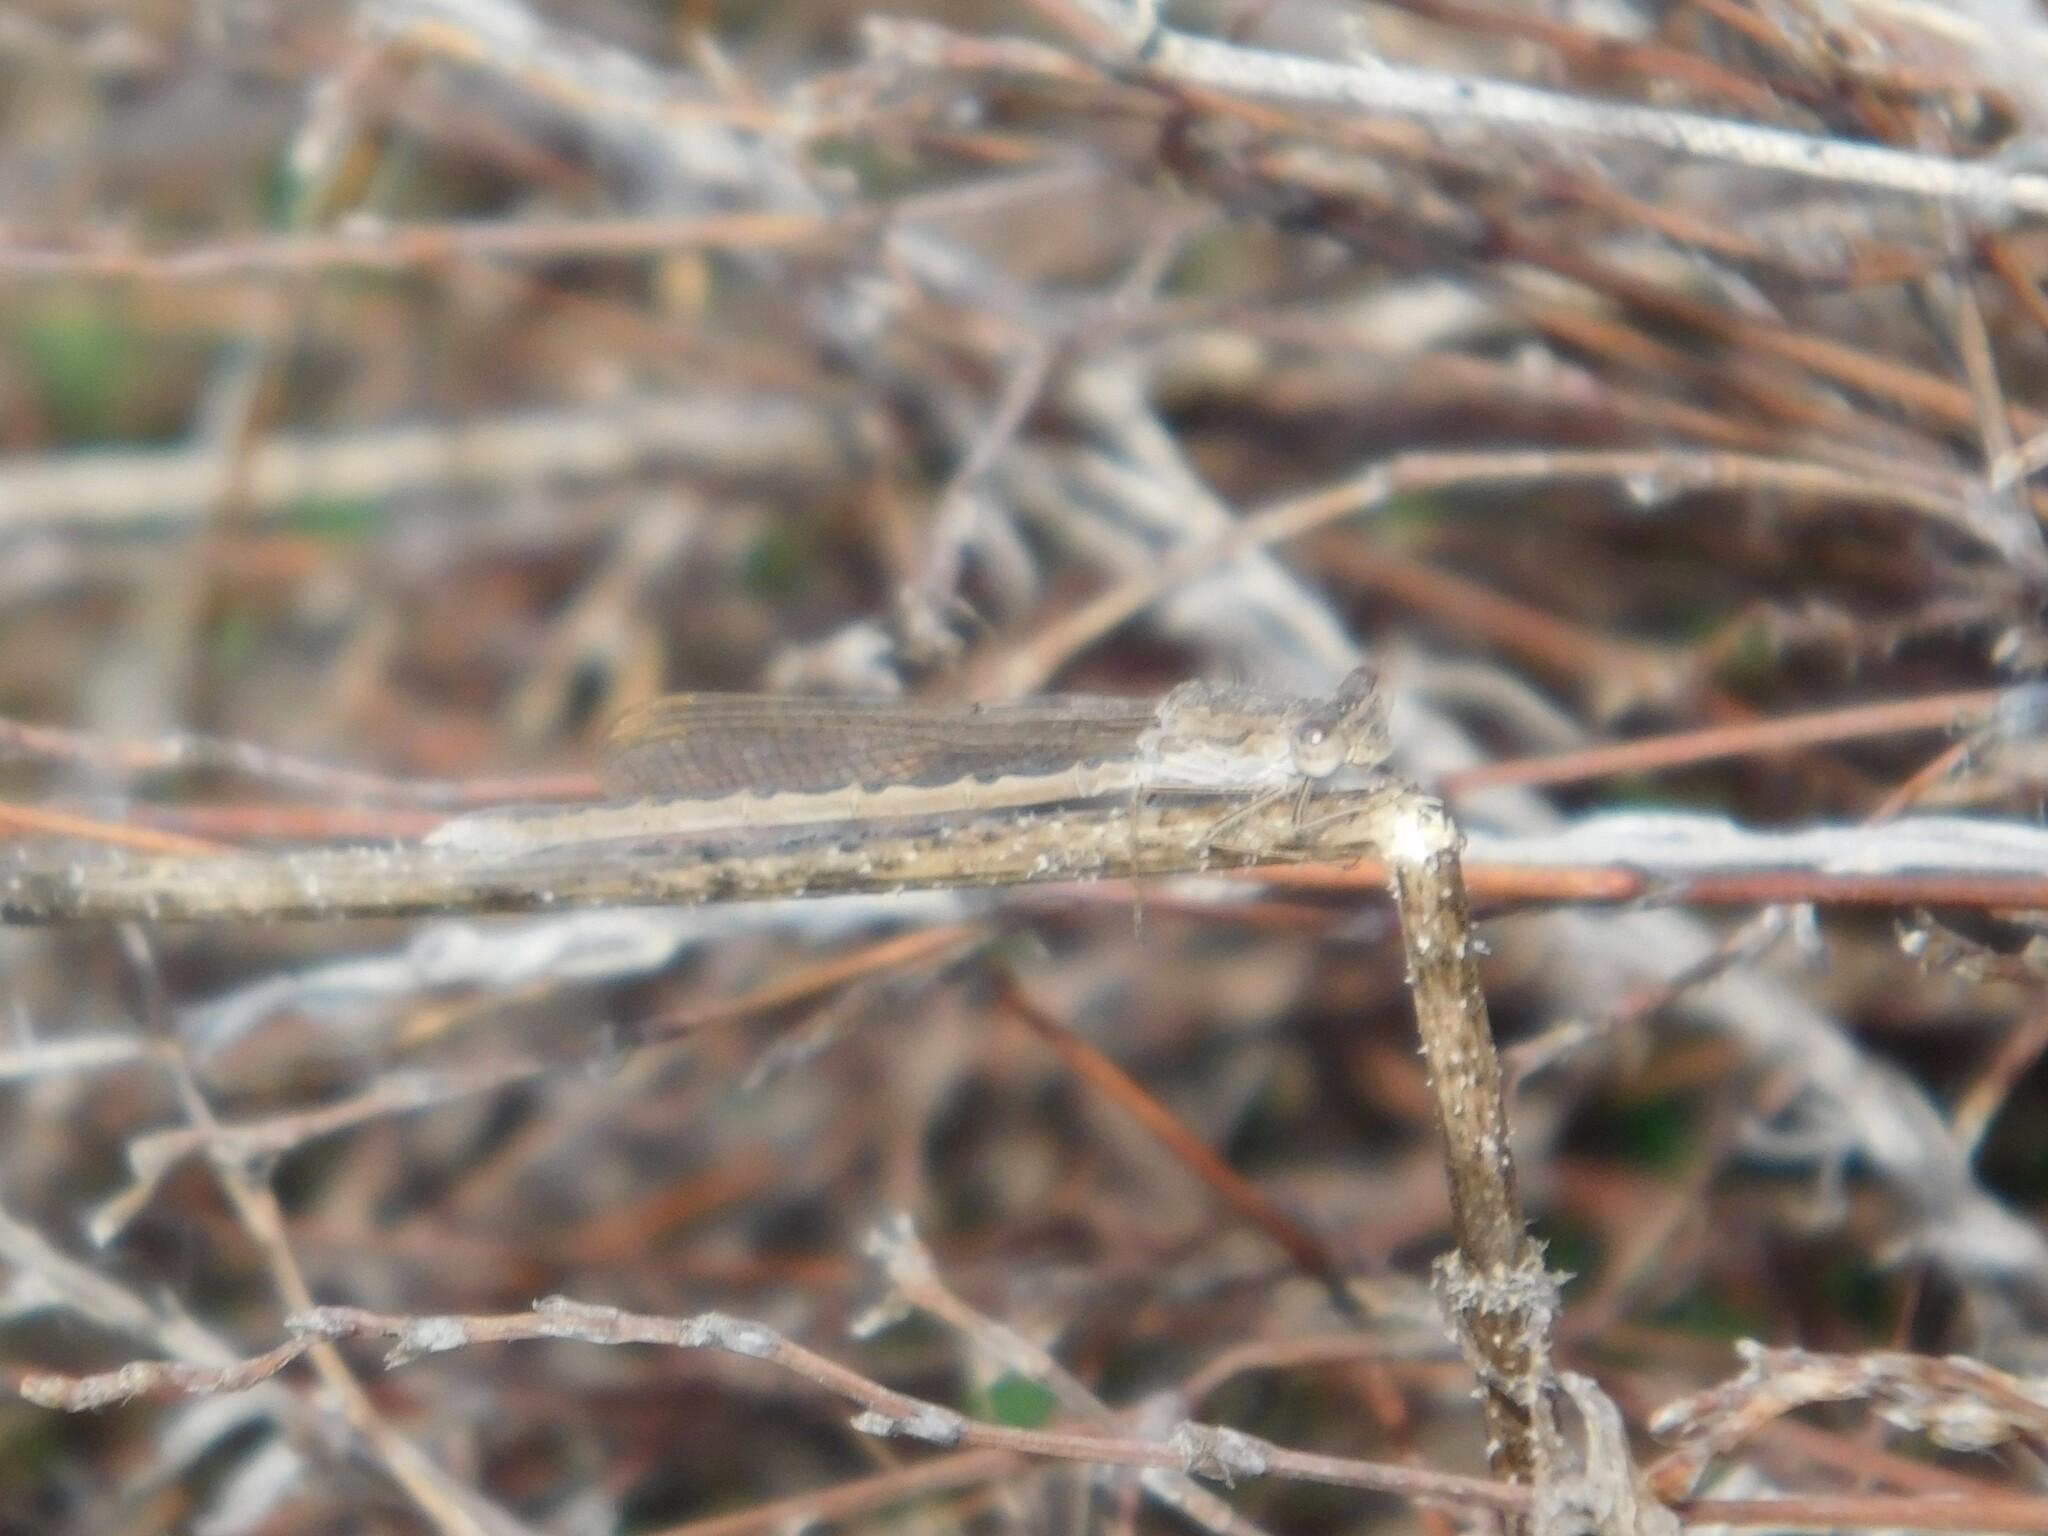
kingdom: Animalia
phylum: Arthropoda
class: Insecta
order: Odonata
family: Lestidae
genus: Sympecma
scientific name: Sympecma paedisca
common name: Siberian winter damsel
